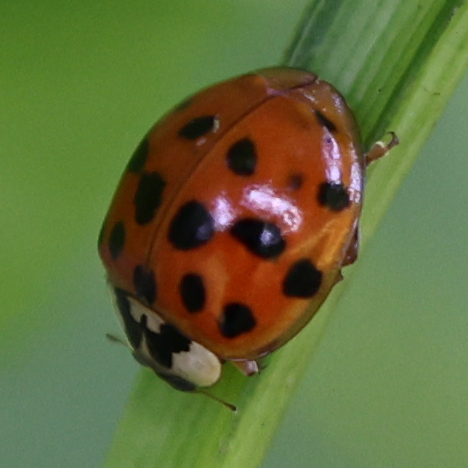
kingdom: Animalia
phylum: Arthropoda
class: Insecta
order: Coleoptera
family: Coccinellidae
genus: Harmonia
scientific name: Harmonia axyridis
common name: Harlequin ladybird
